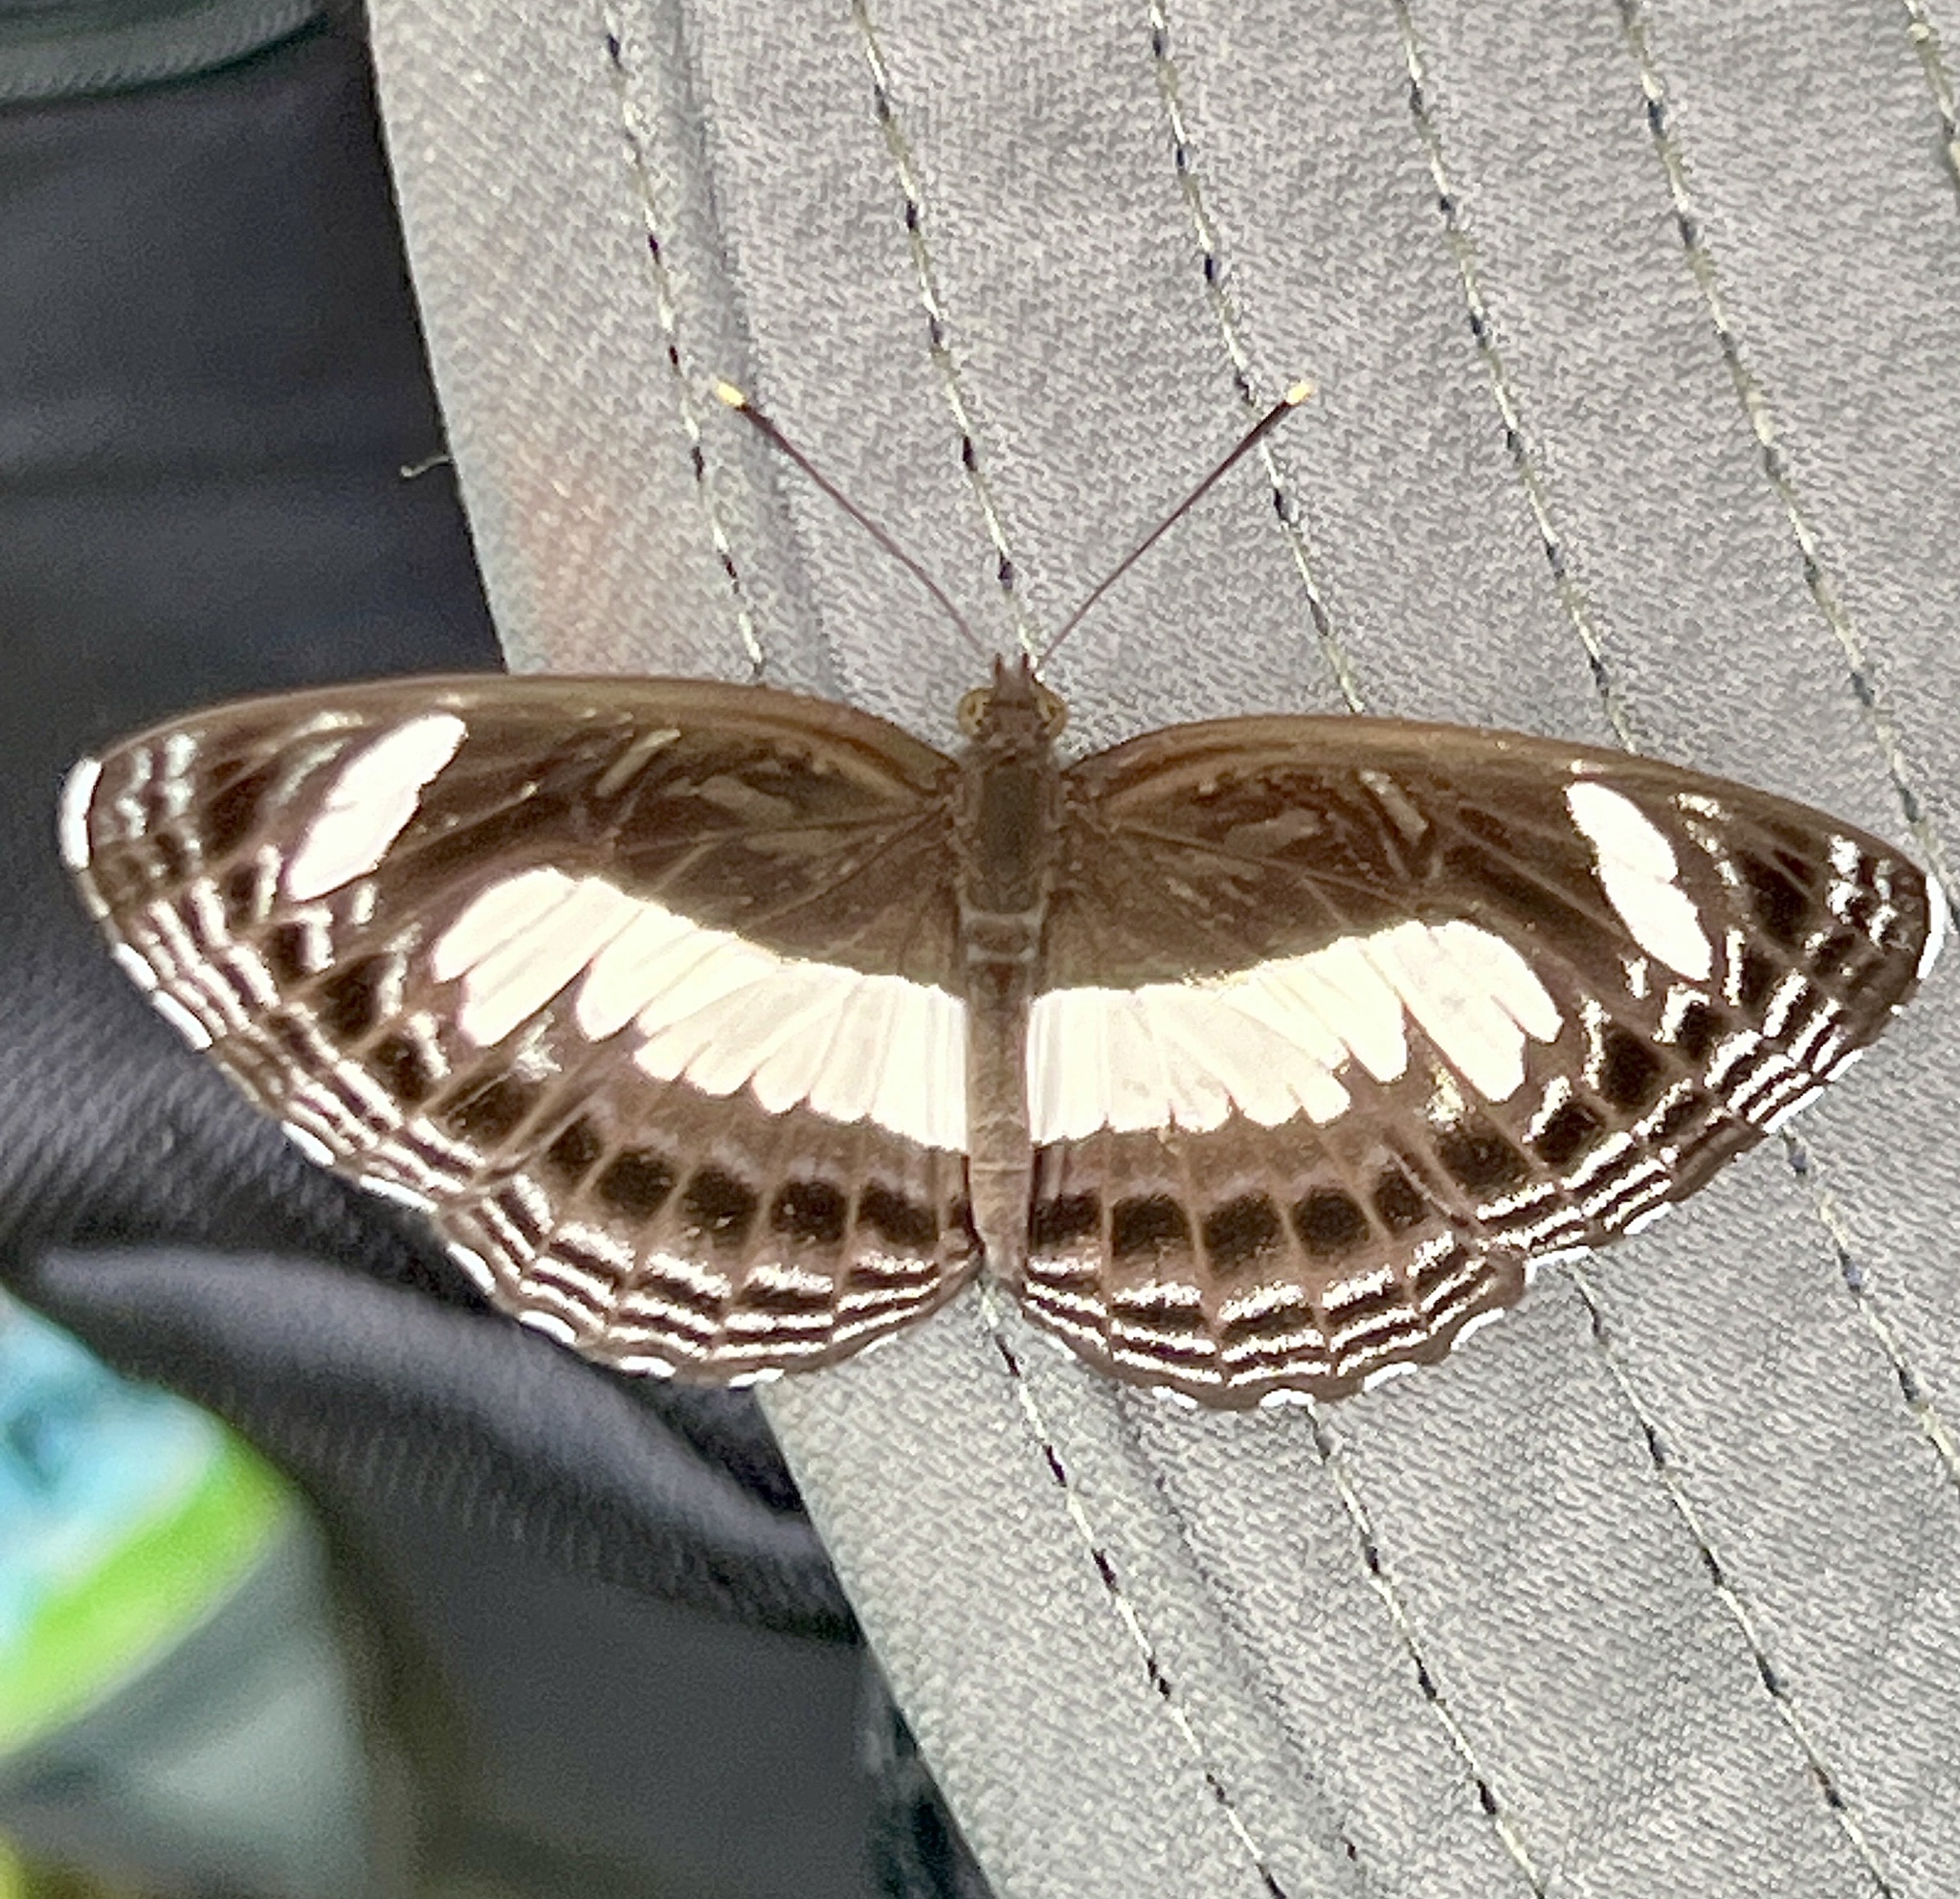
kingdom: Animalia
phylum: Arthropoda
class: Insecta
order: Lepidoptera
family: Nymphalidae
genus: Neptis
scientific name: Neptis nemetes
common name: Nemetes sailer
